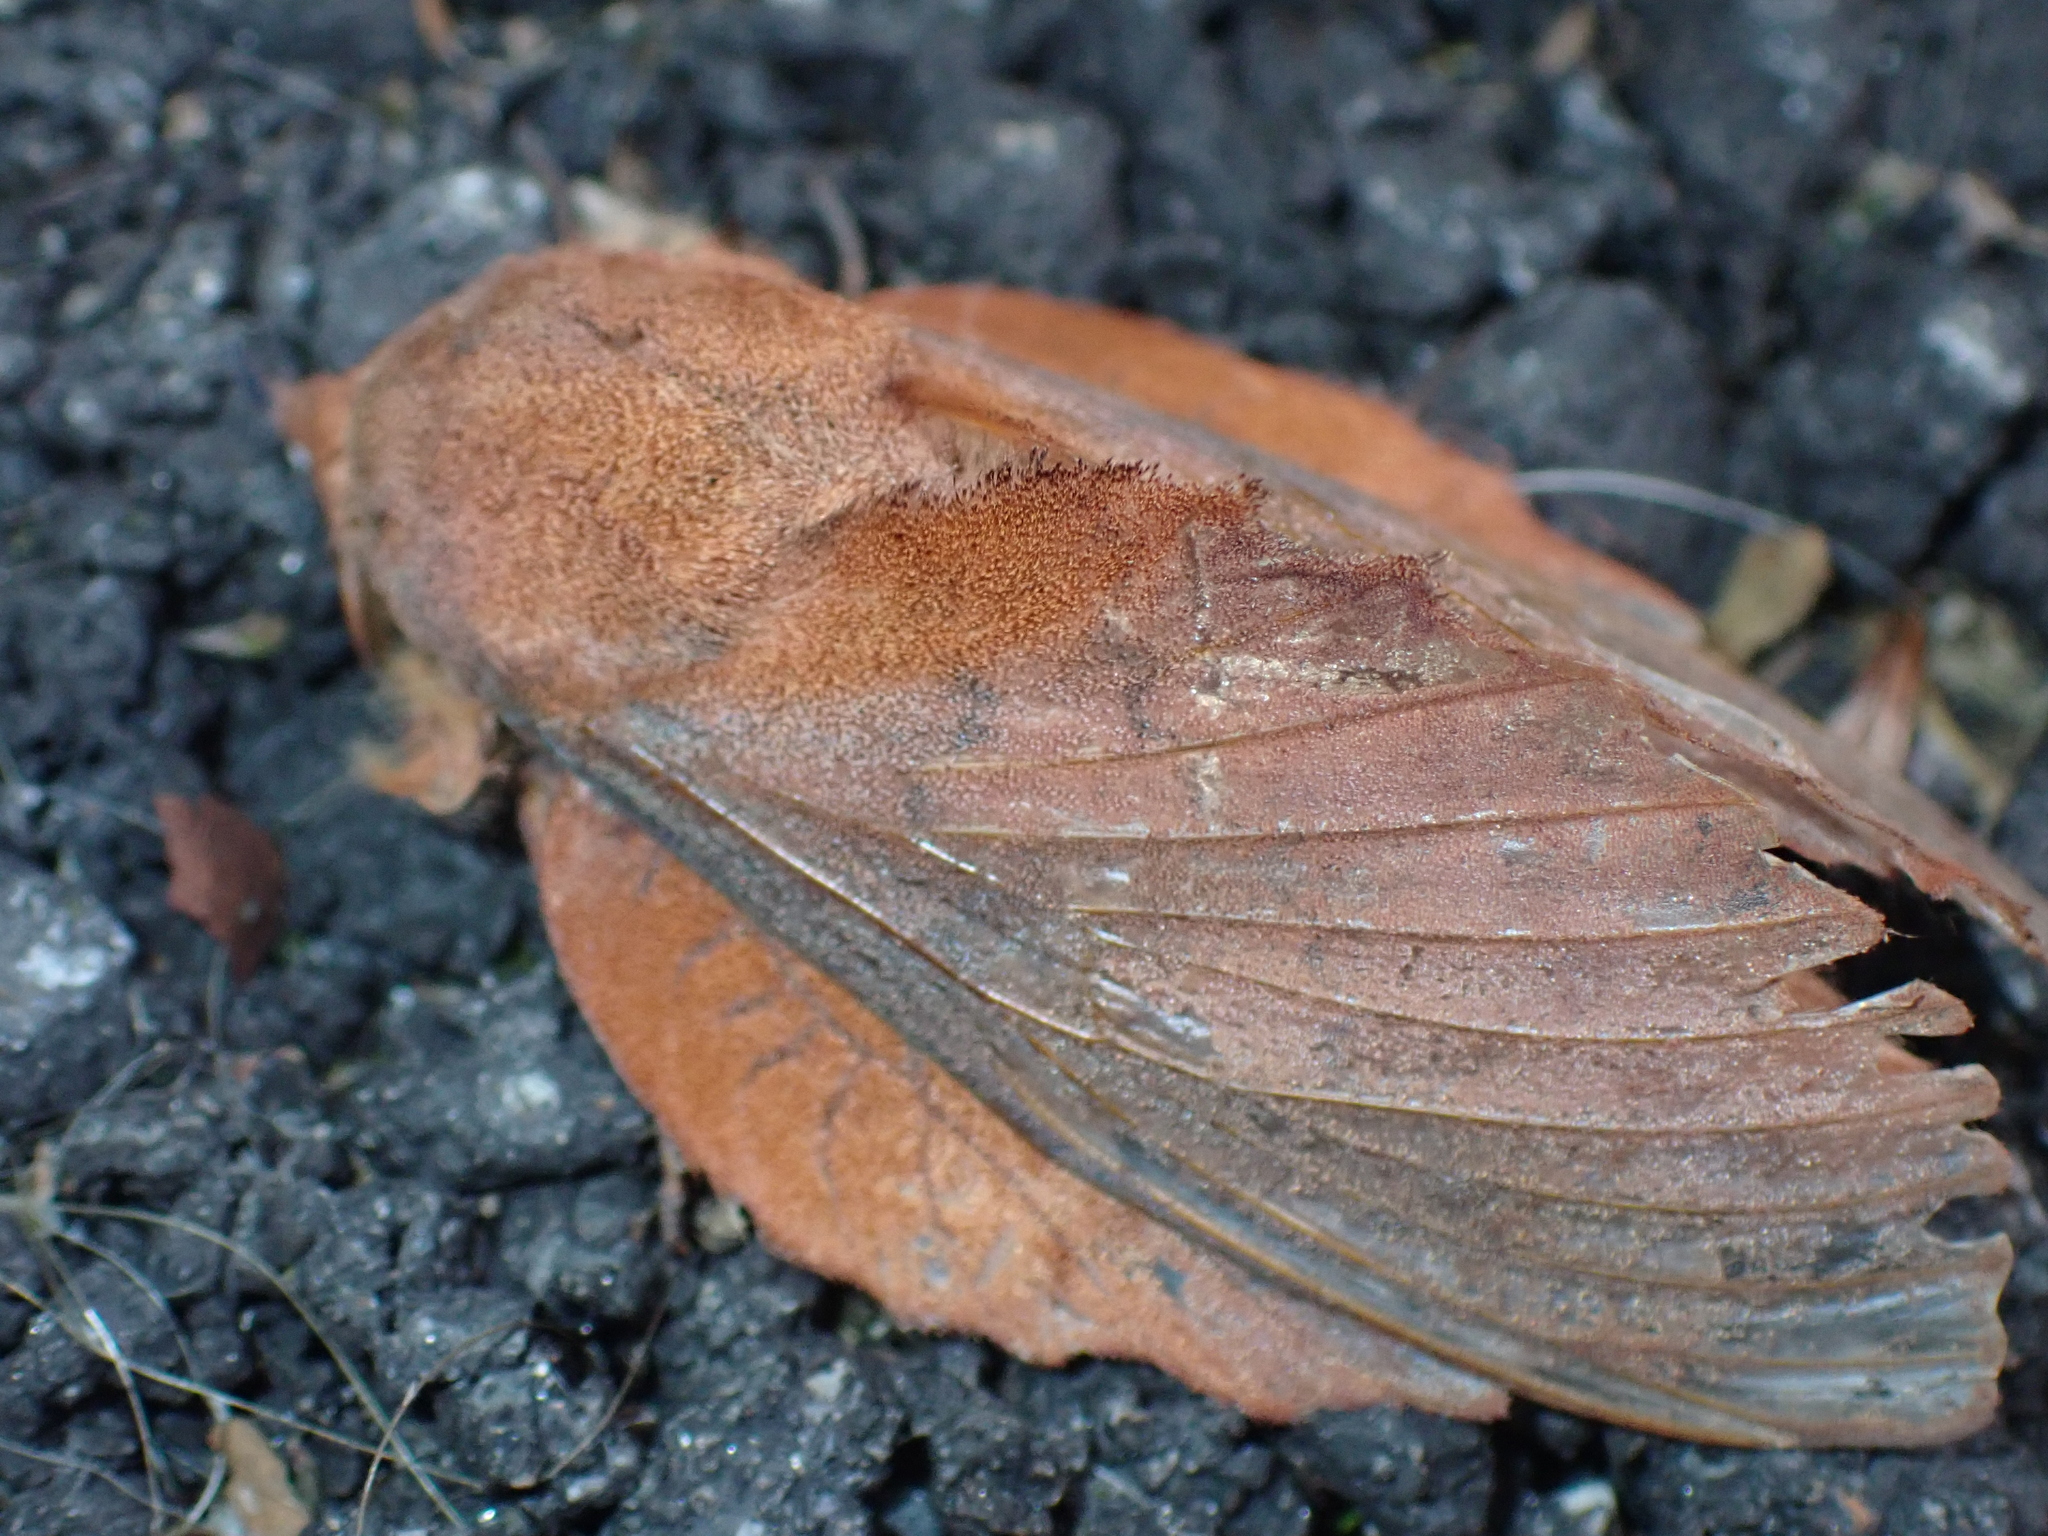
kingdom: Animalia
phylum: Arthropoda
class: Insecta
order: Lepidoptera
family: Lasiocampidae
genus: Gastropacha
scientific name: Gastropacha quercifolia
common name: Lappet
